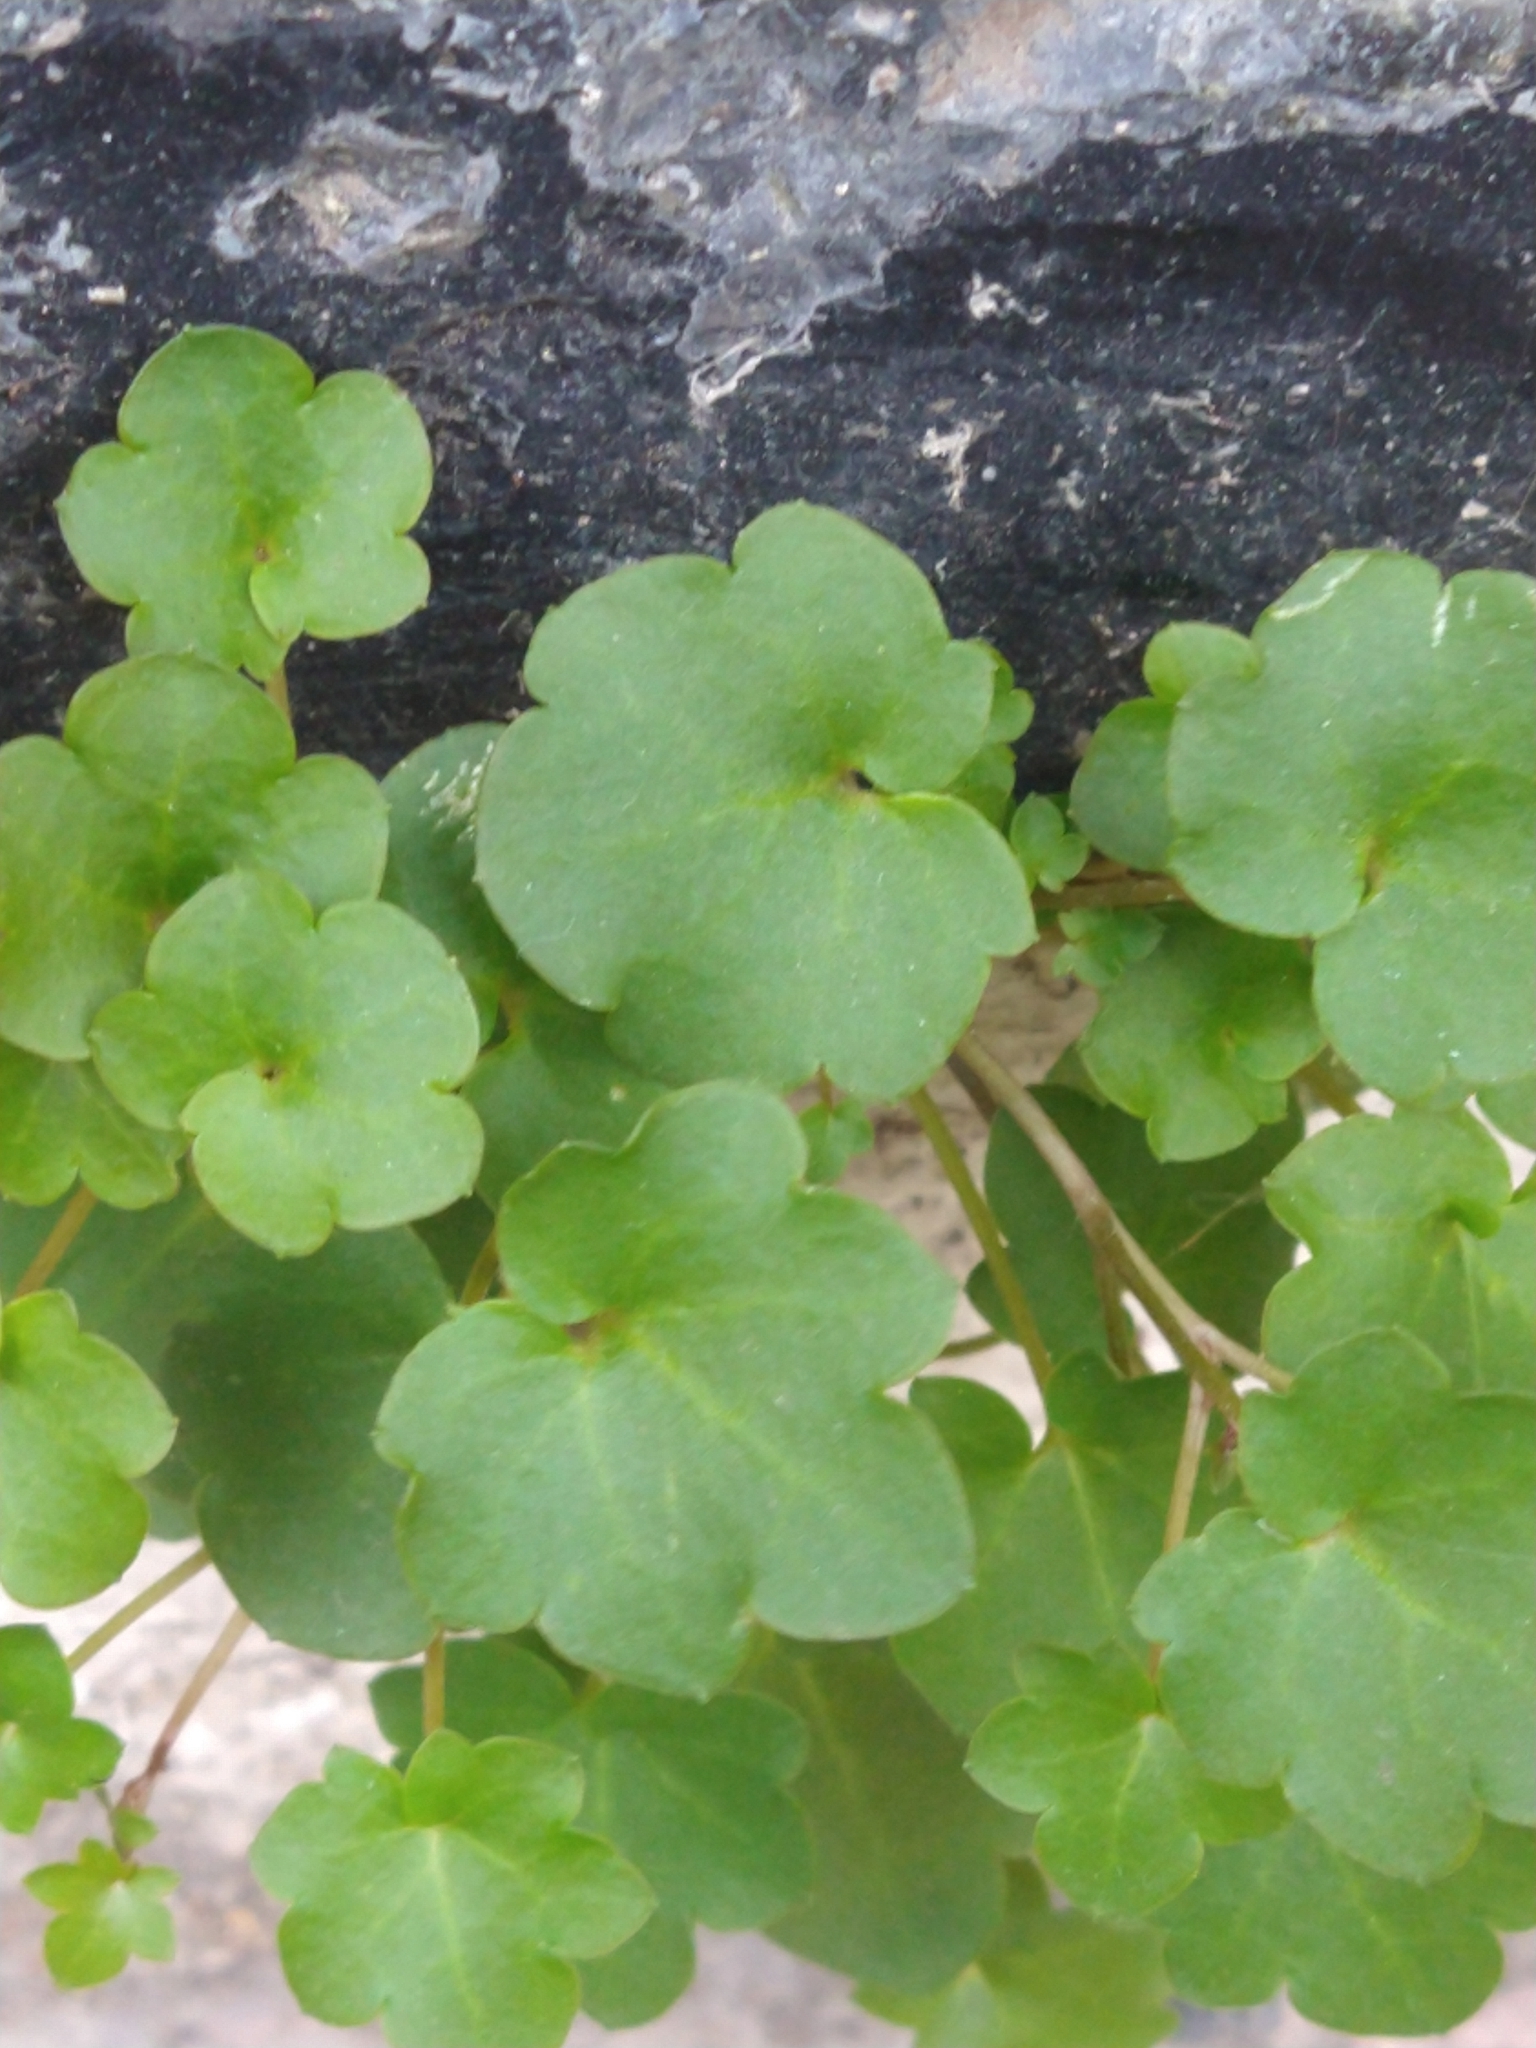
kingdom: Plantae
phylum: Tracheophyta
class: Magnoliopsida
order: Lamiales
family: Plantaginaceae
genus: Cymbalaria
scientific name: Cymbalaria muralis
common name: Ivy-leaved toadflax
